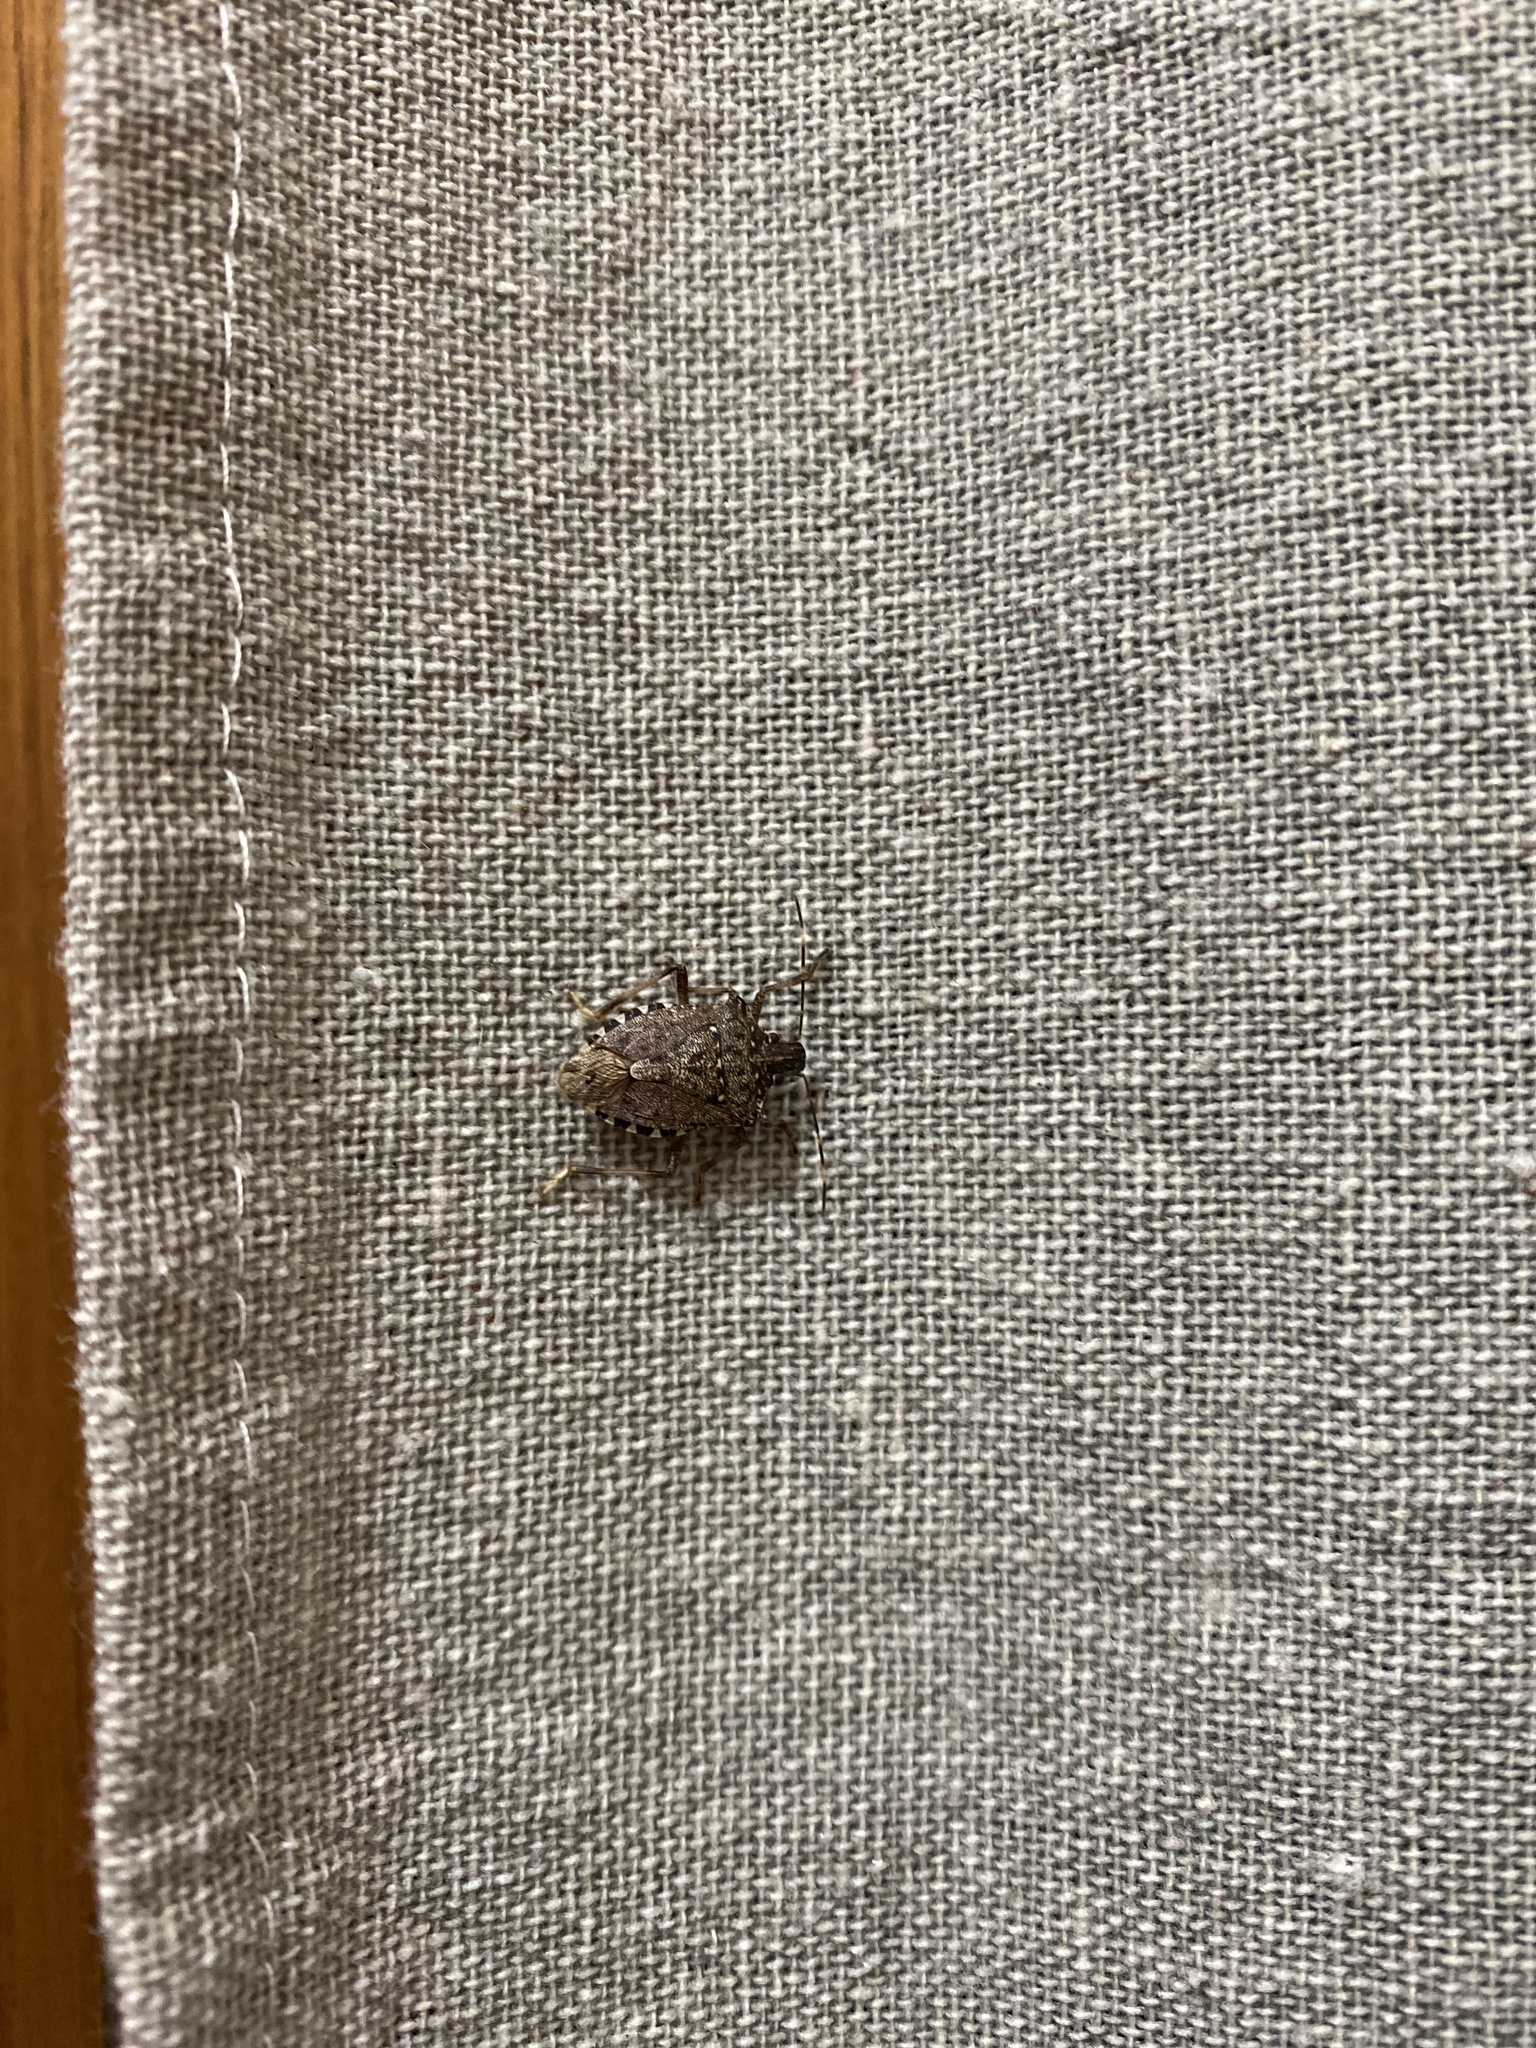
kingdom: Animalia
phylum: Arthropoda
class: Insecta
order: Hemiptera
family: Pentatomidae
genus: Halyomorpha
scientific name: Halyomorpha halys
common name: Brown marmorated stink bug
